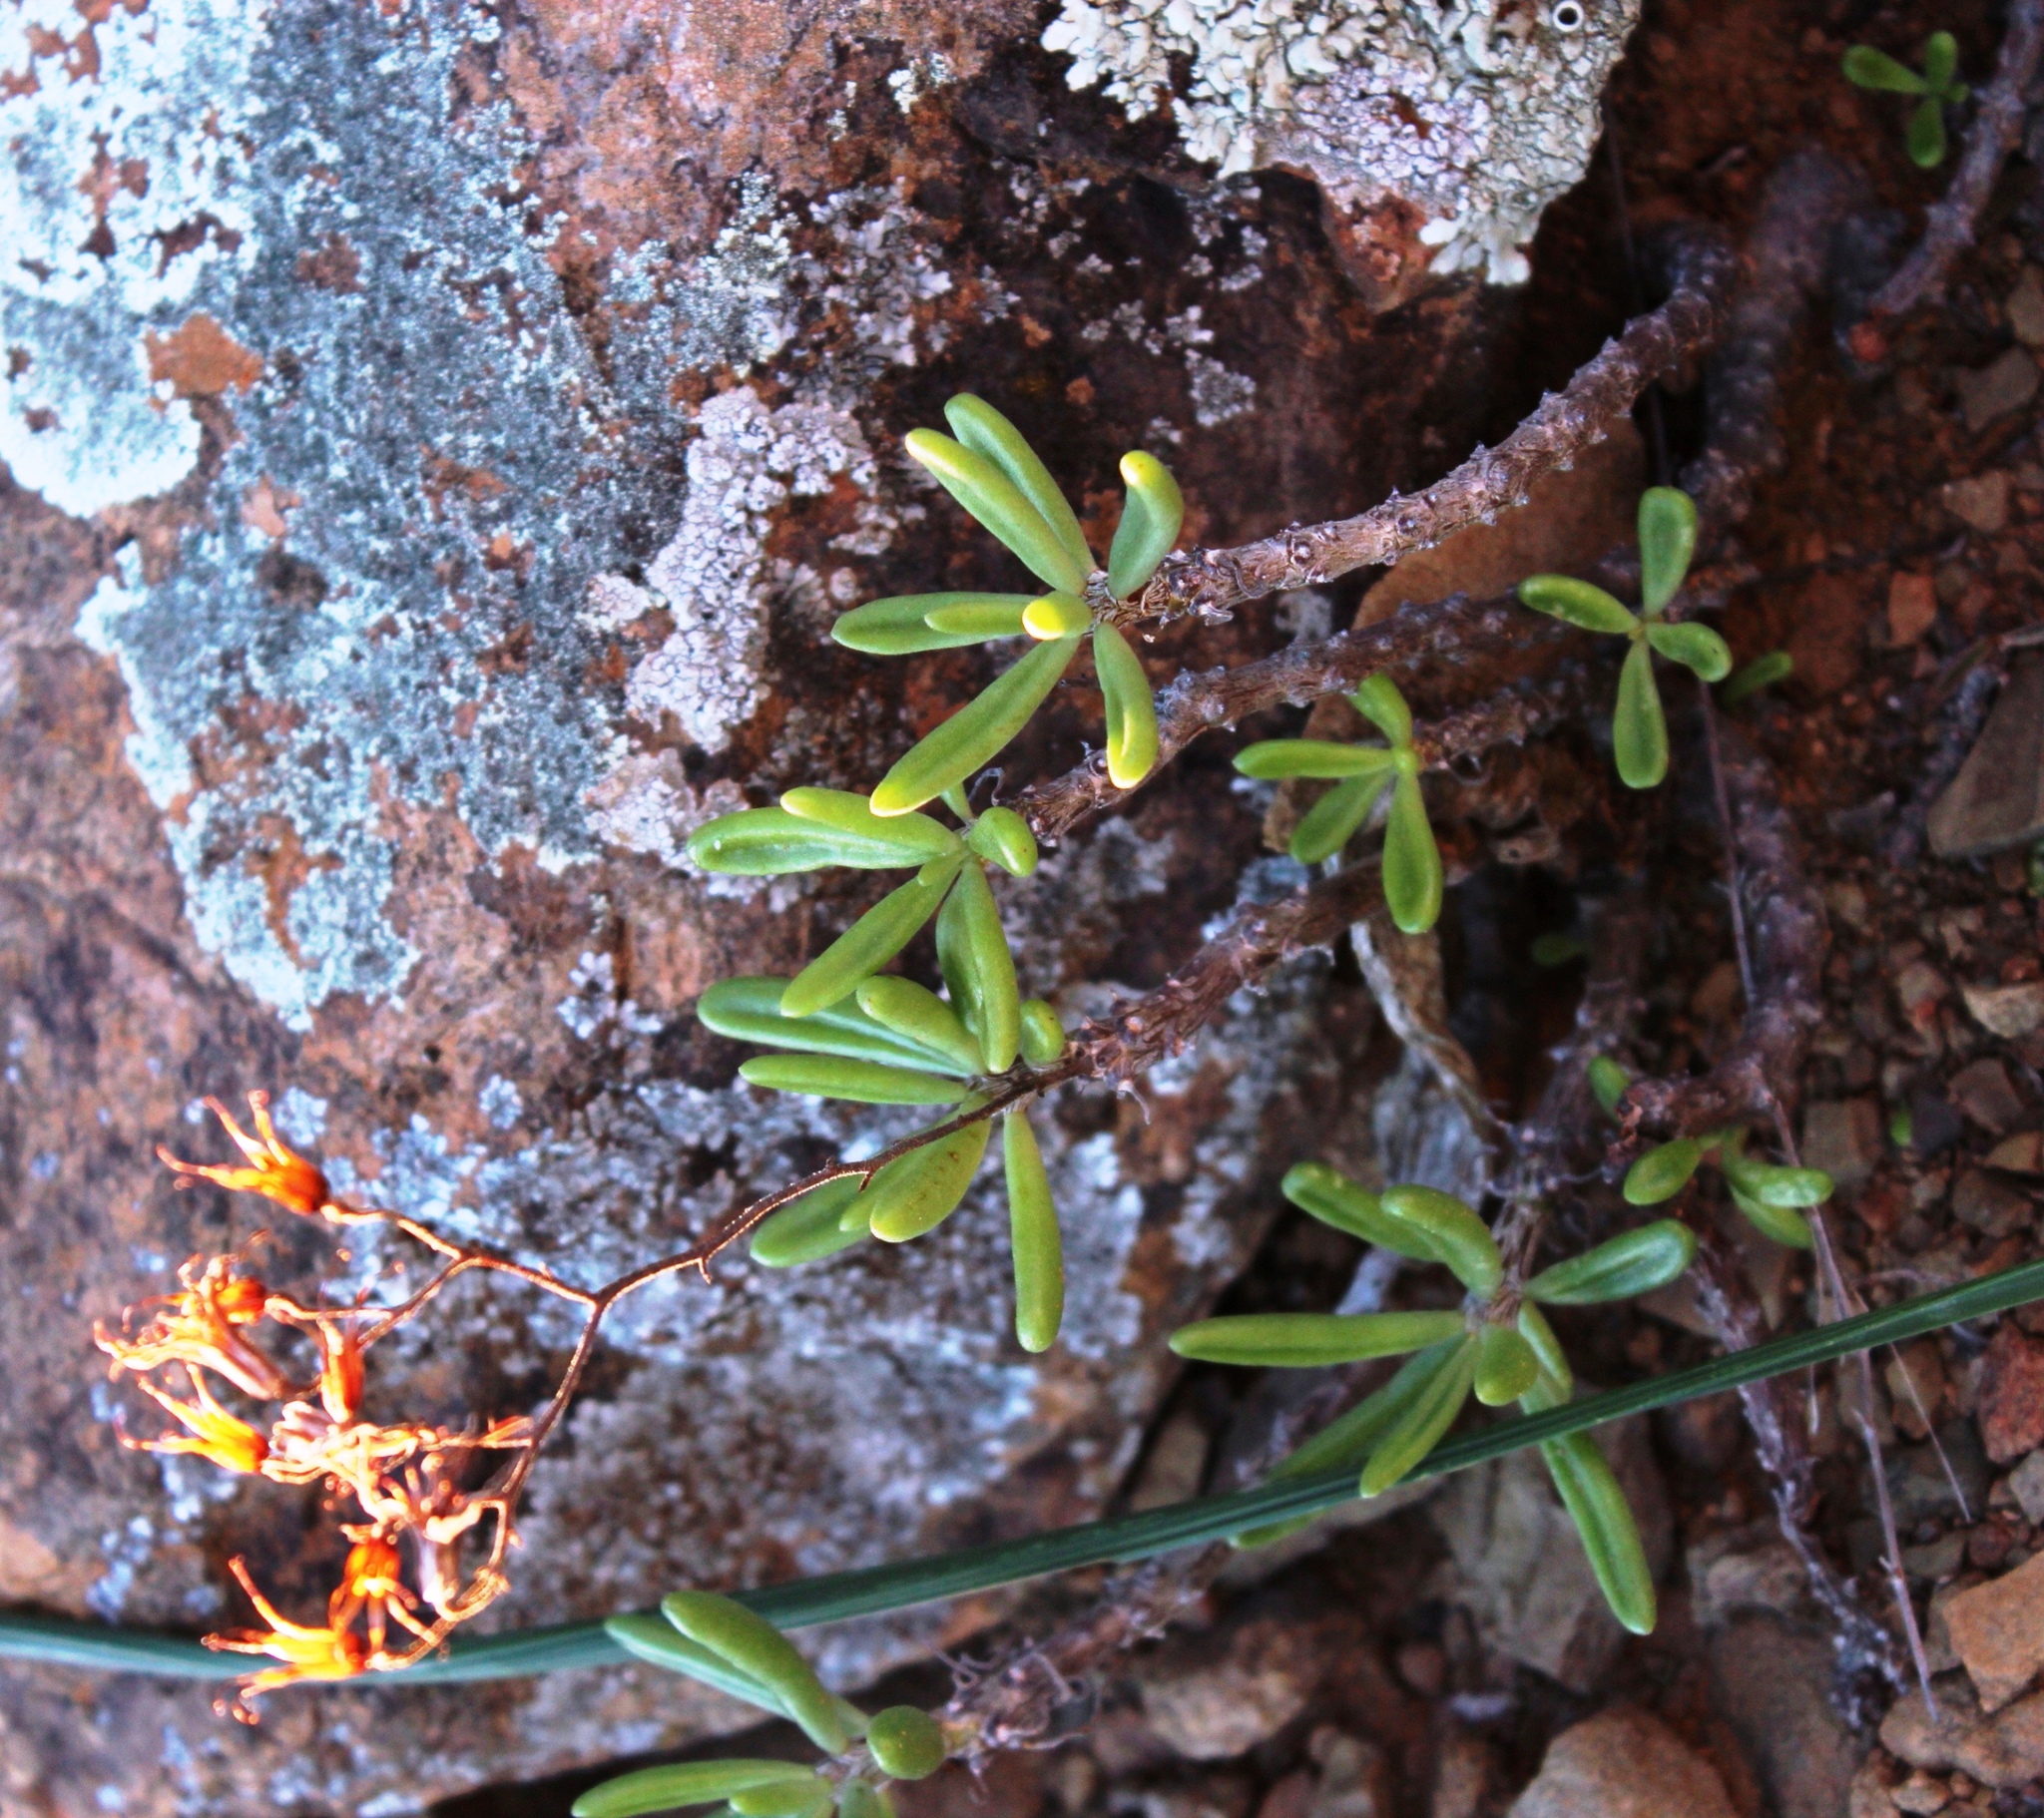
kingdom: Plantae
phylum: Tracheophyta
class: Magnoliopsida
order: Saxifragales
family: Crassulaceae
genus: Tylecodon
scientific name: Tylecodon striatus
